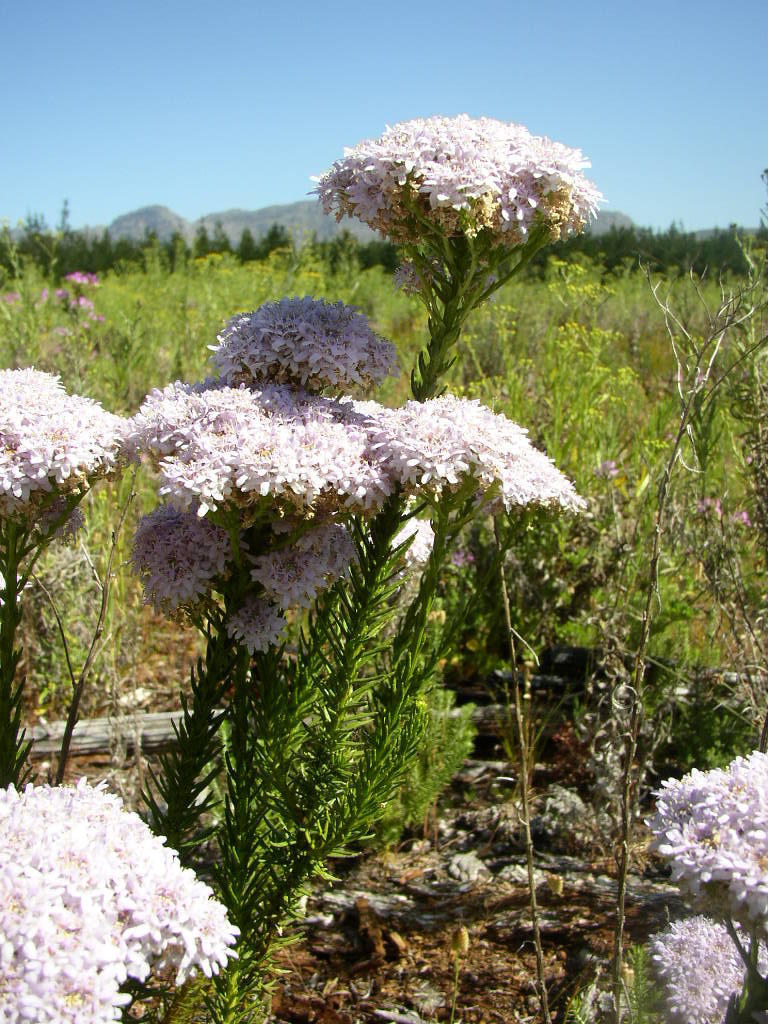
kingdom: Plantae
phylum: Tracheophyta
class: Magnoliopsida
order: Lamiales
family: Scrophulariaceae
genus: Pseudoselago
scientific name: Pseudoselago spuria
